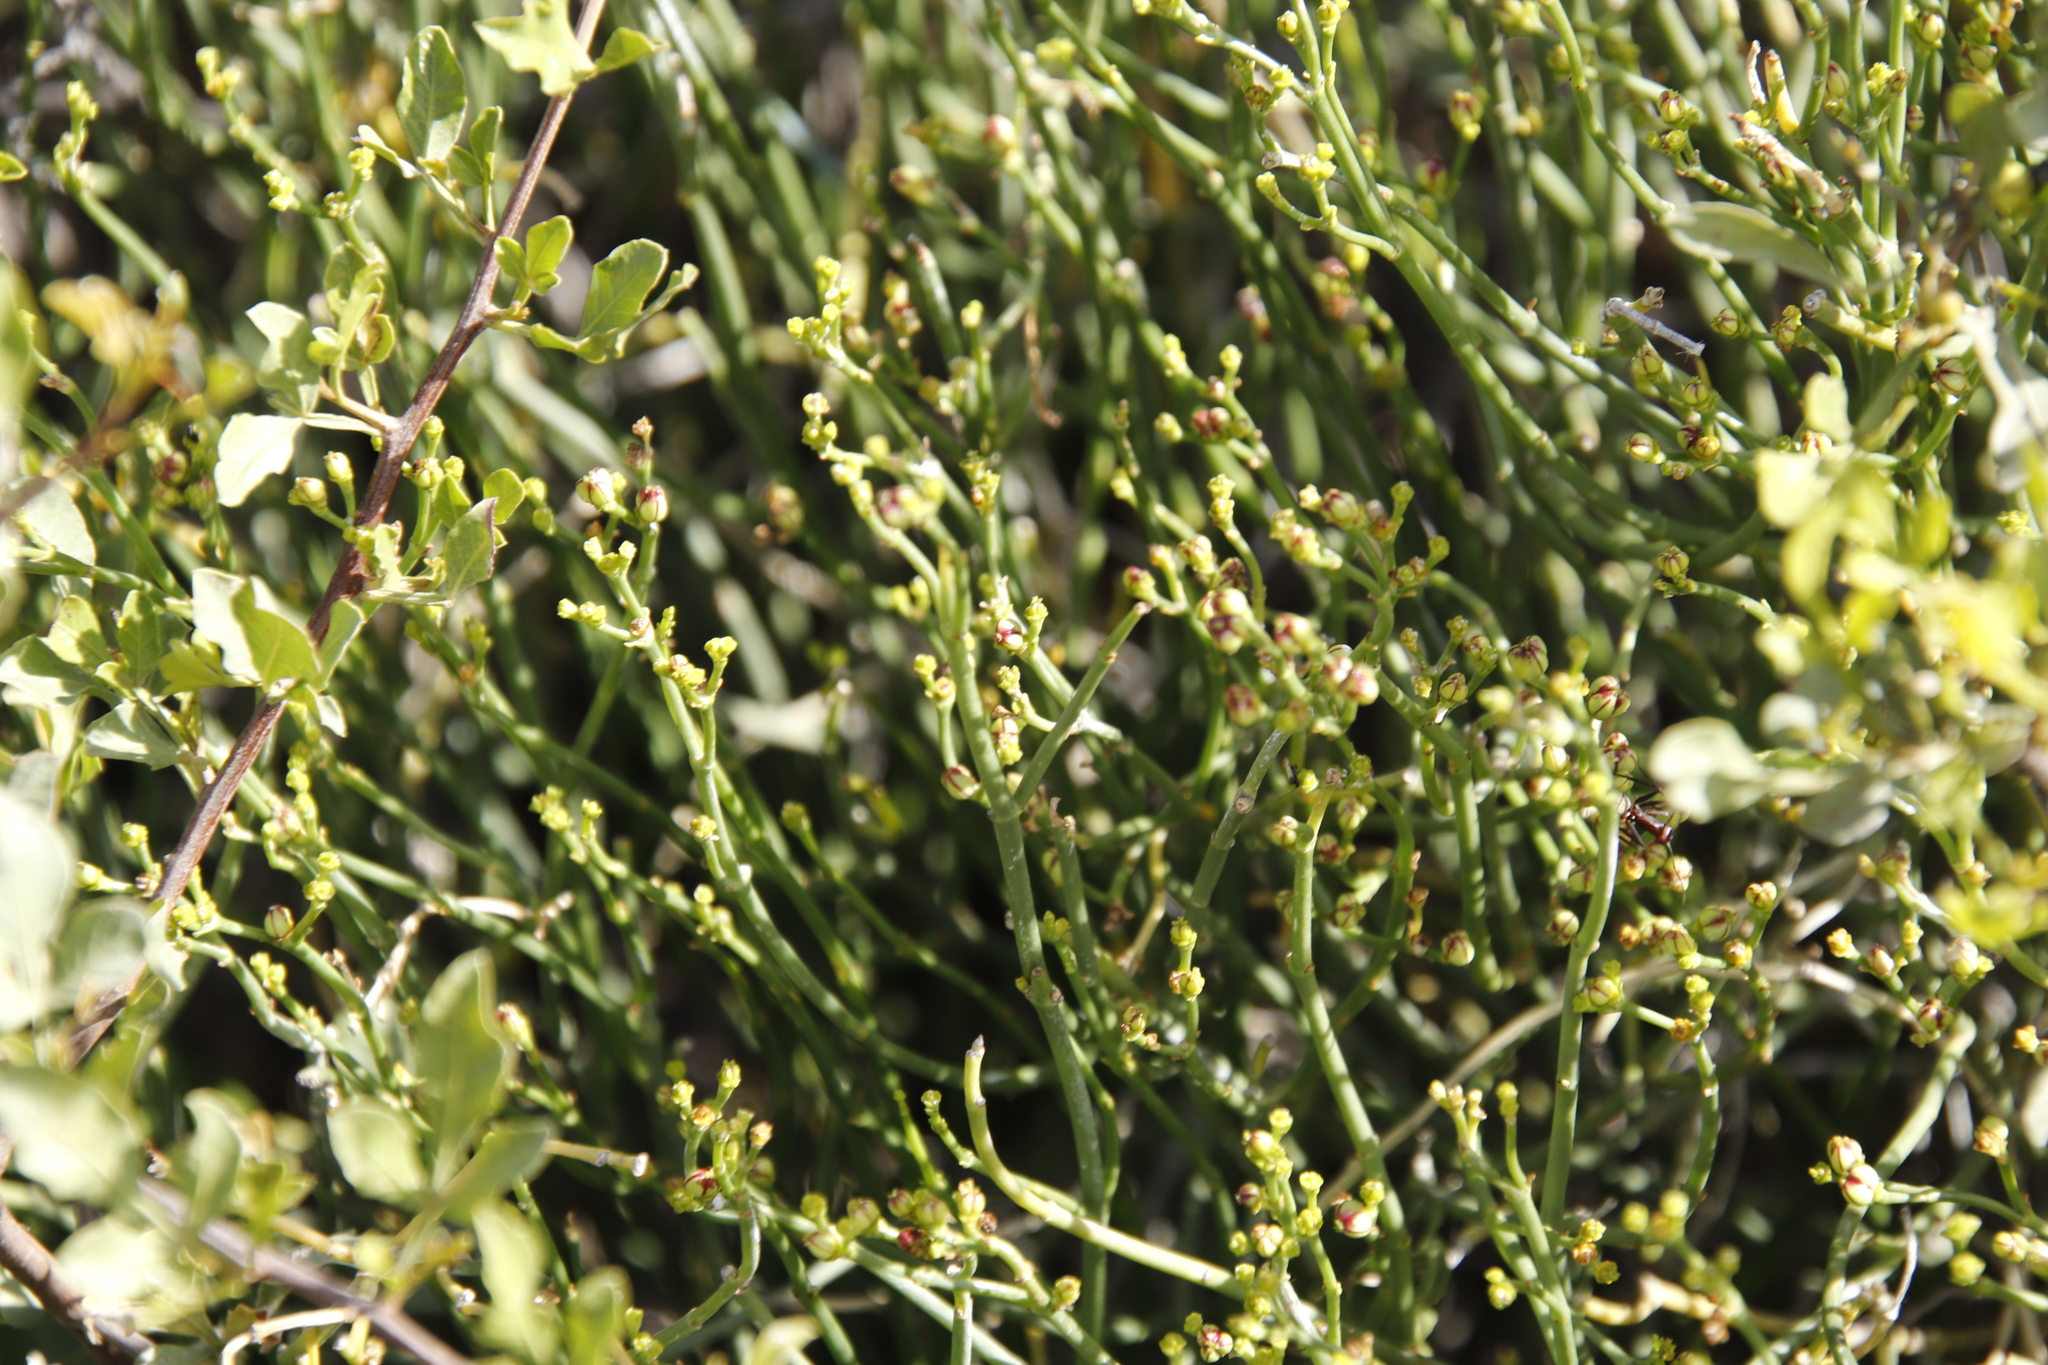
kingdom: Plantae
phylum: Tracheophyta
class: Magnoliopsida
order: Malpighiales
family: Euphorbiaceae
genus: Euphorbia
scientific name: Euphorbia burmanni
